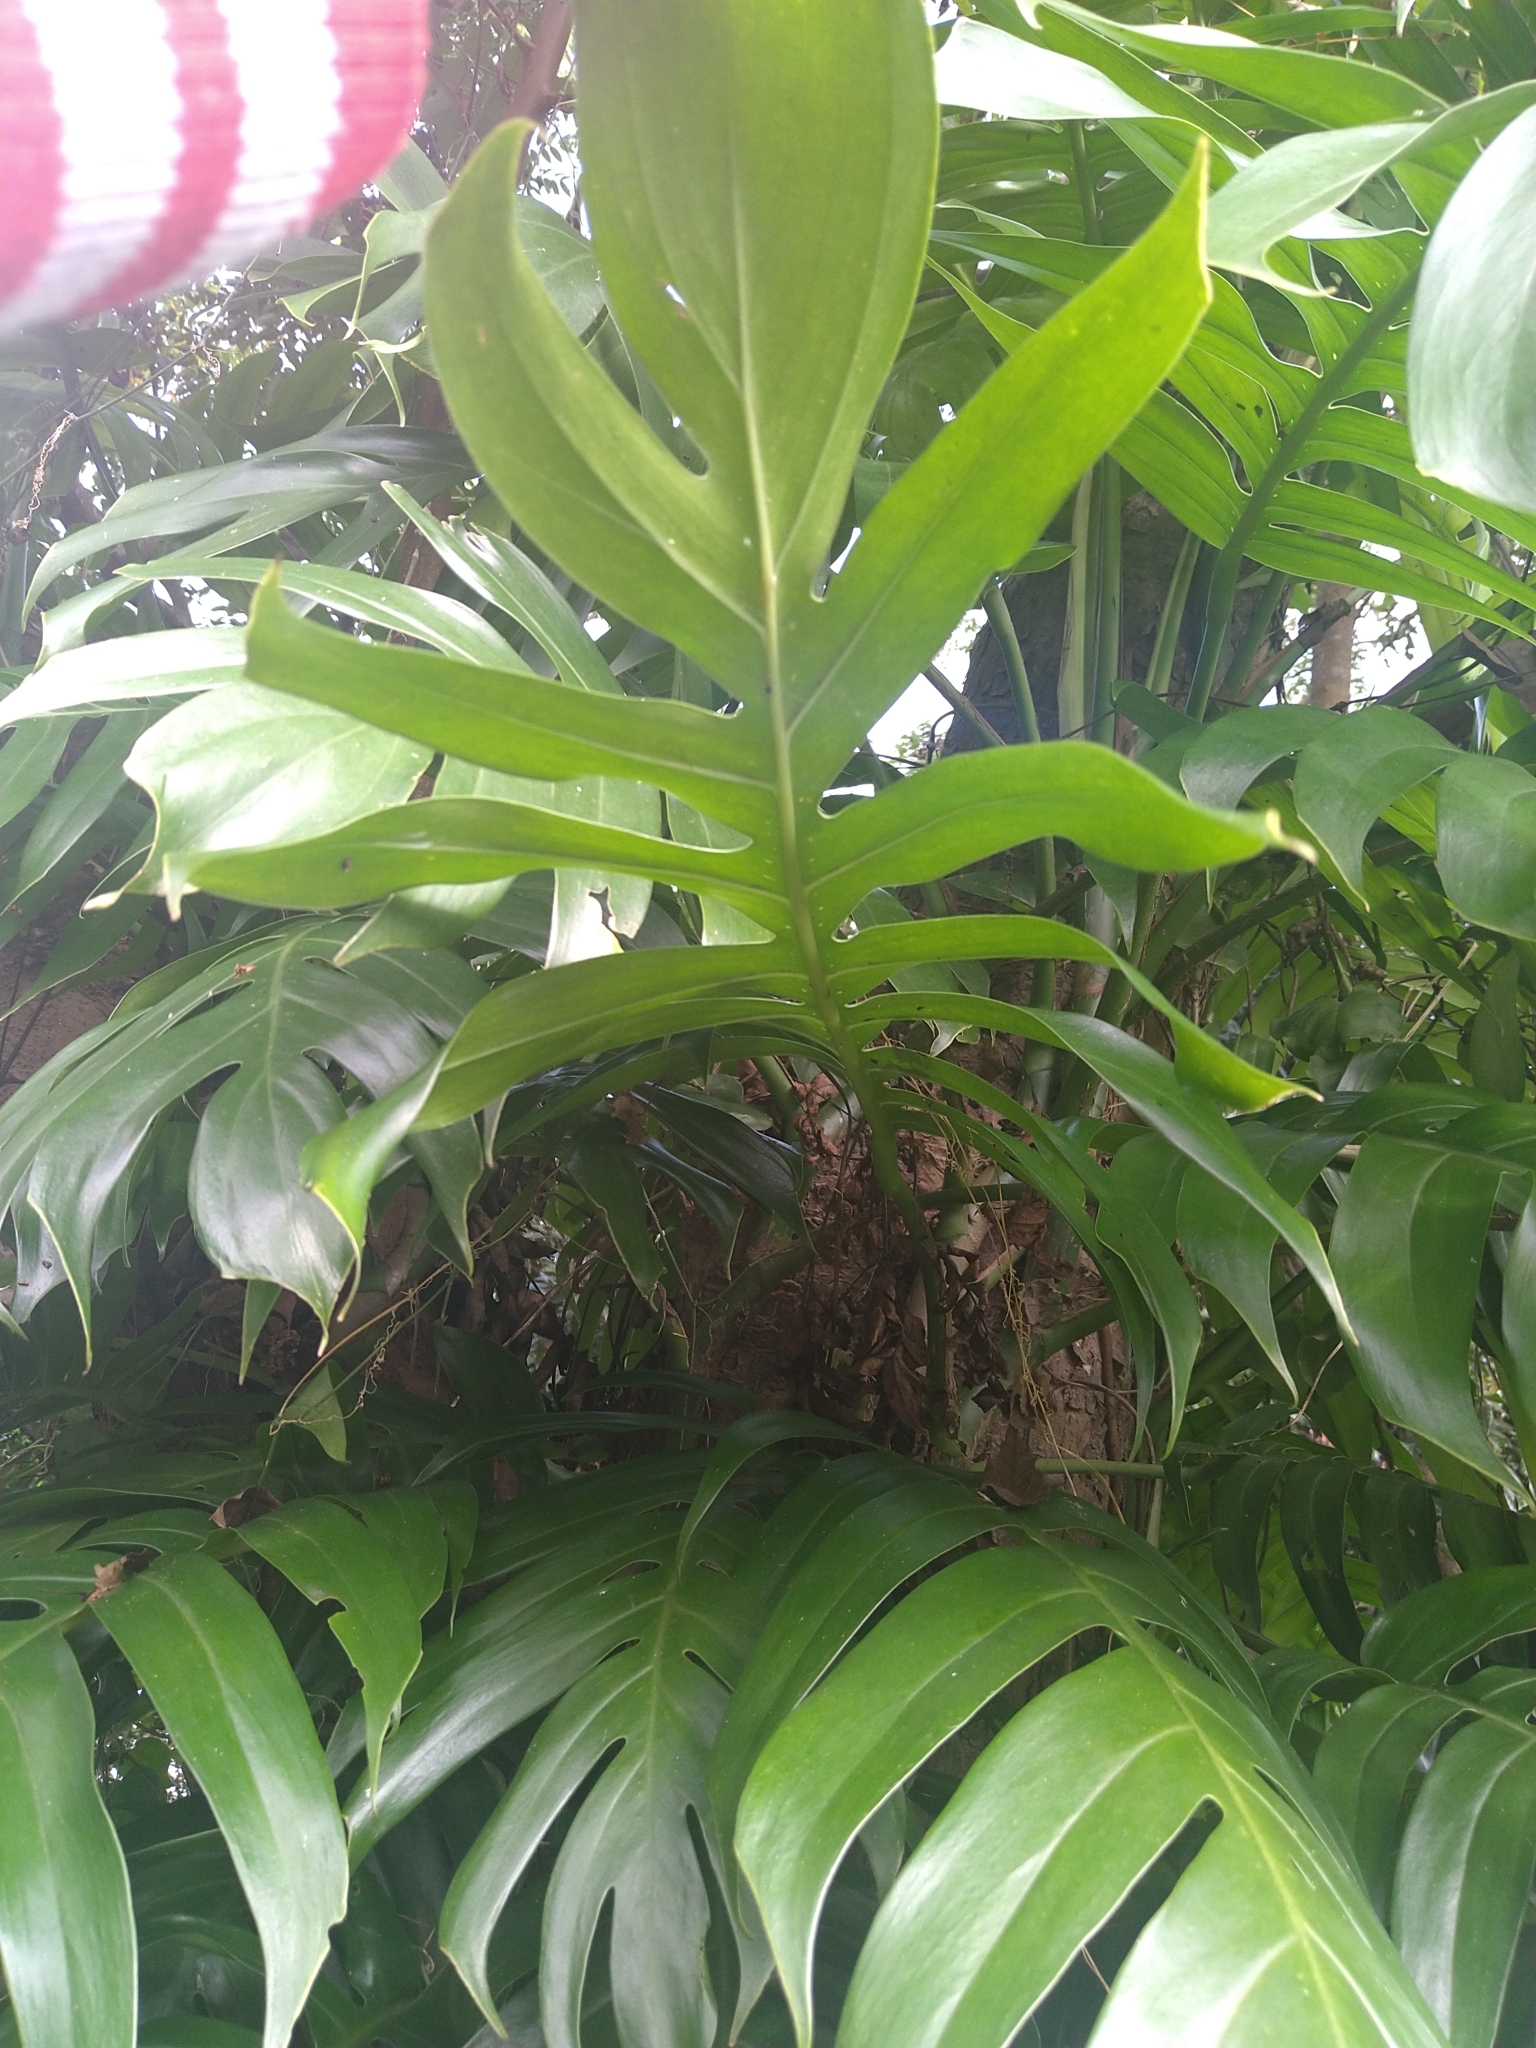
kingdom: Plantae
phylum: Tracheophyta
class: Liliopsida
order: Alismatales
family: Araceae
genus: Epipremnum
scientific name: Epipremnum pinnatum
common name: Centipede tongavine
